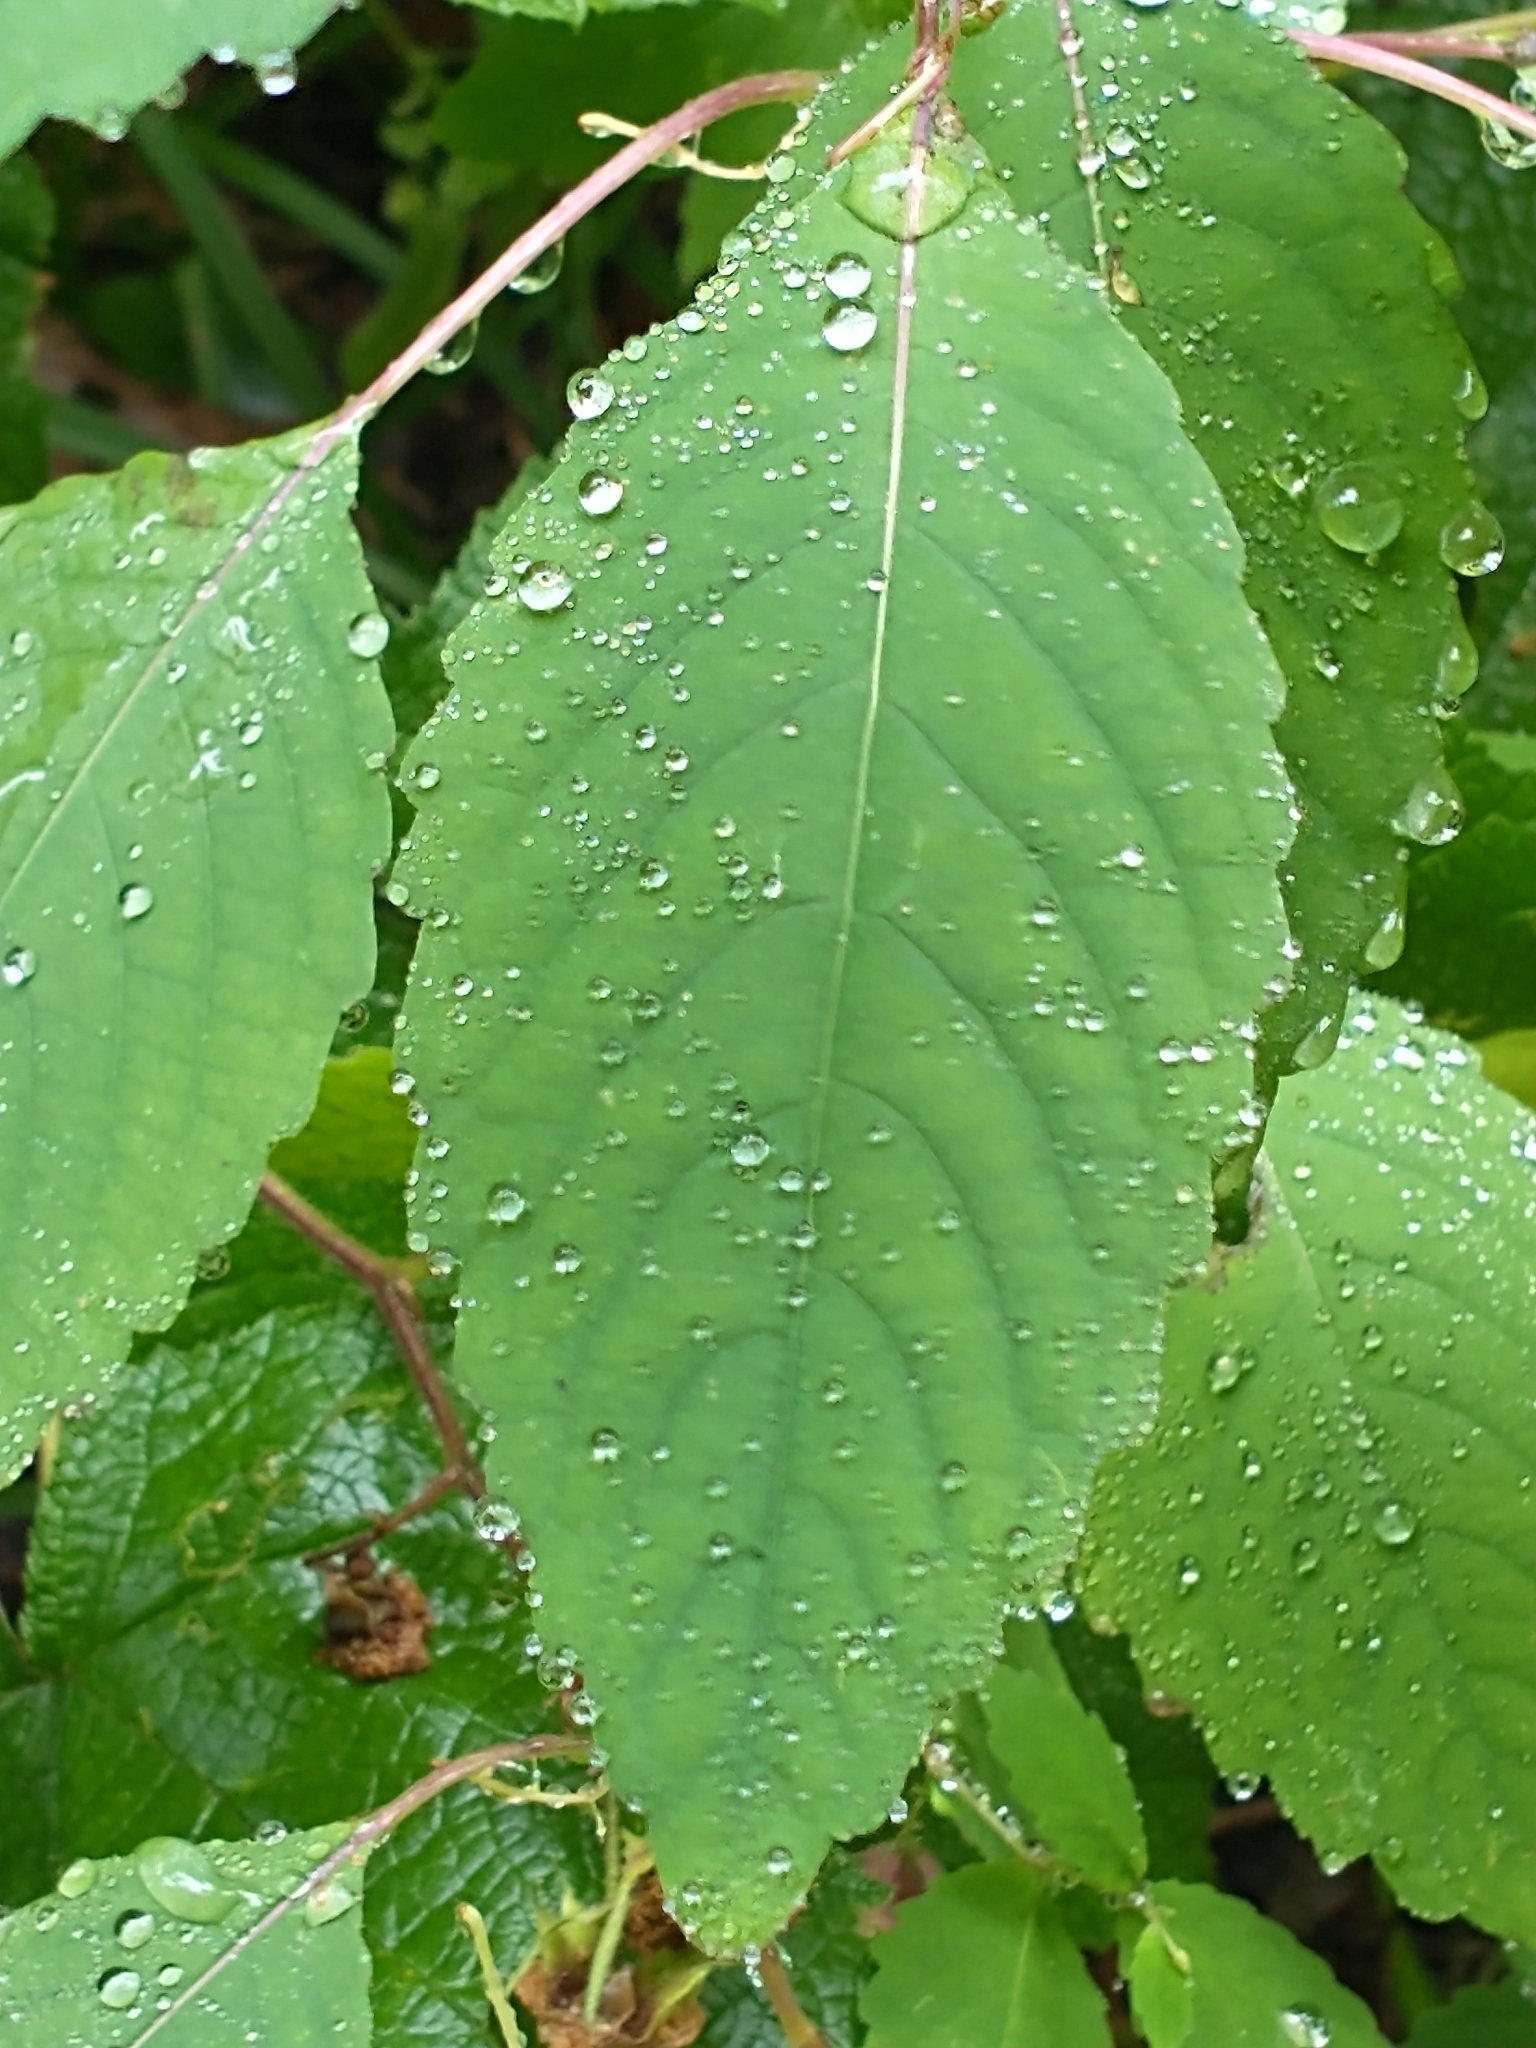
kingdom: Plantae
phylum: Tracheophyta
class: Magnoliopsida
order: Ericales
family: Balsaminaceae
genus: Impatiens
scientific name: Impatiens pallida
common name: Pale snapweed
